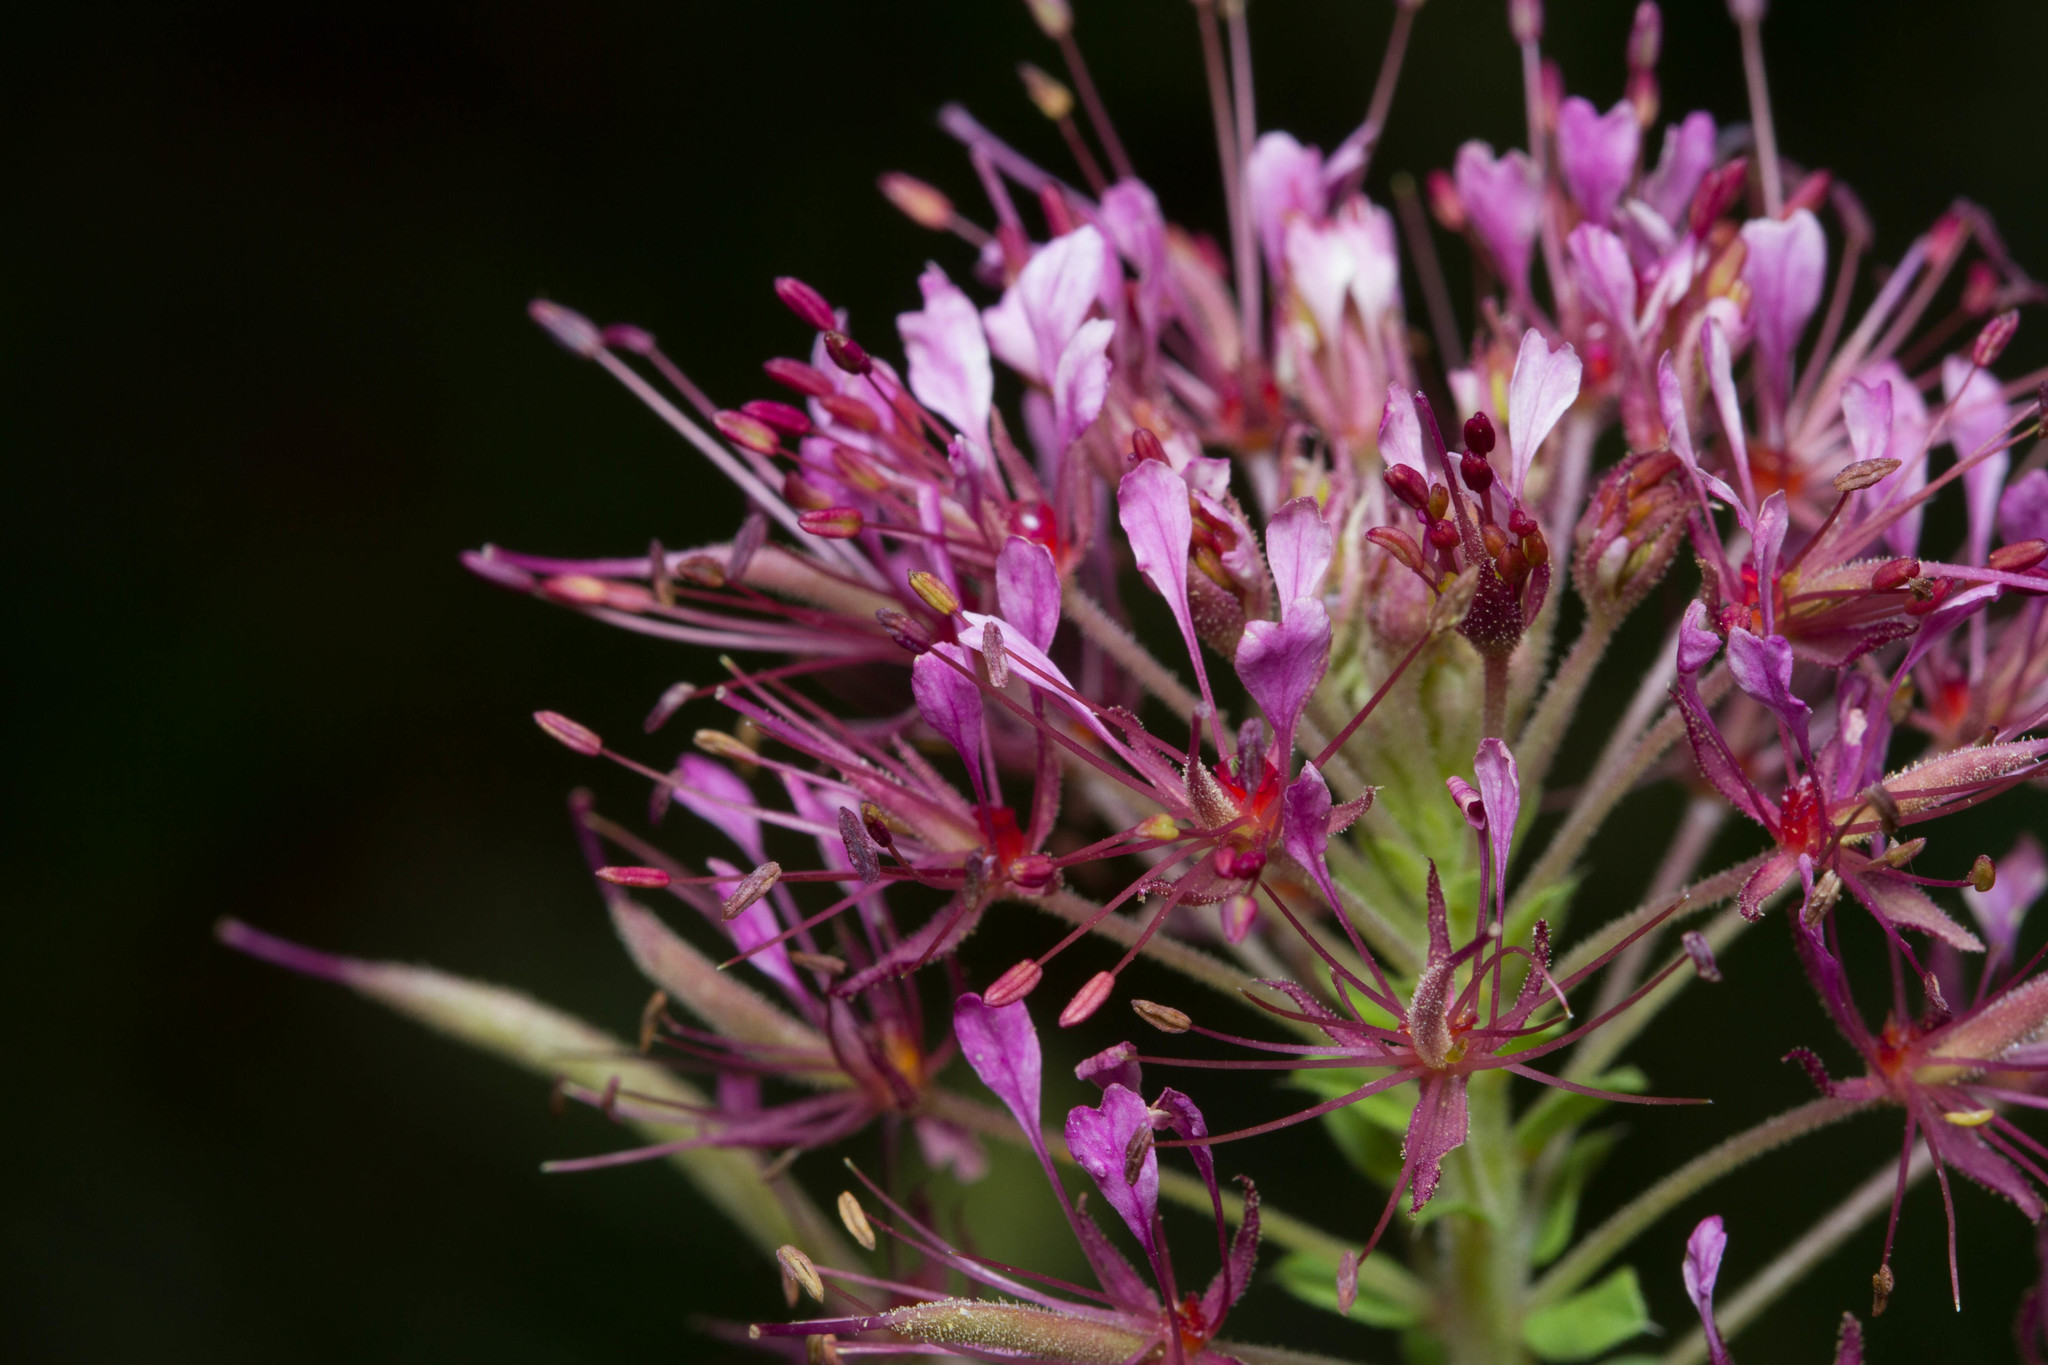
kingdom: Plantae
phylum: Tracheophyta
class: Magnoliopsida
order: Brassicales
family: Cleomaceae
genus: Polanisia
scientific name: Polanisia dodecandra
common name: Clammyweed
